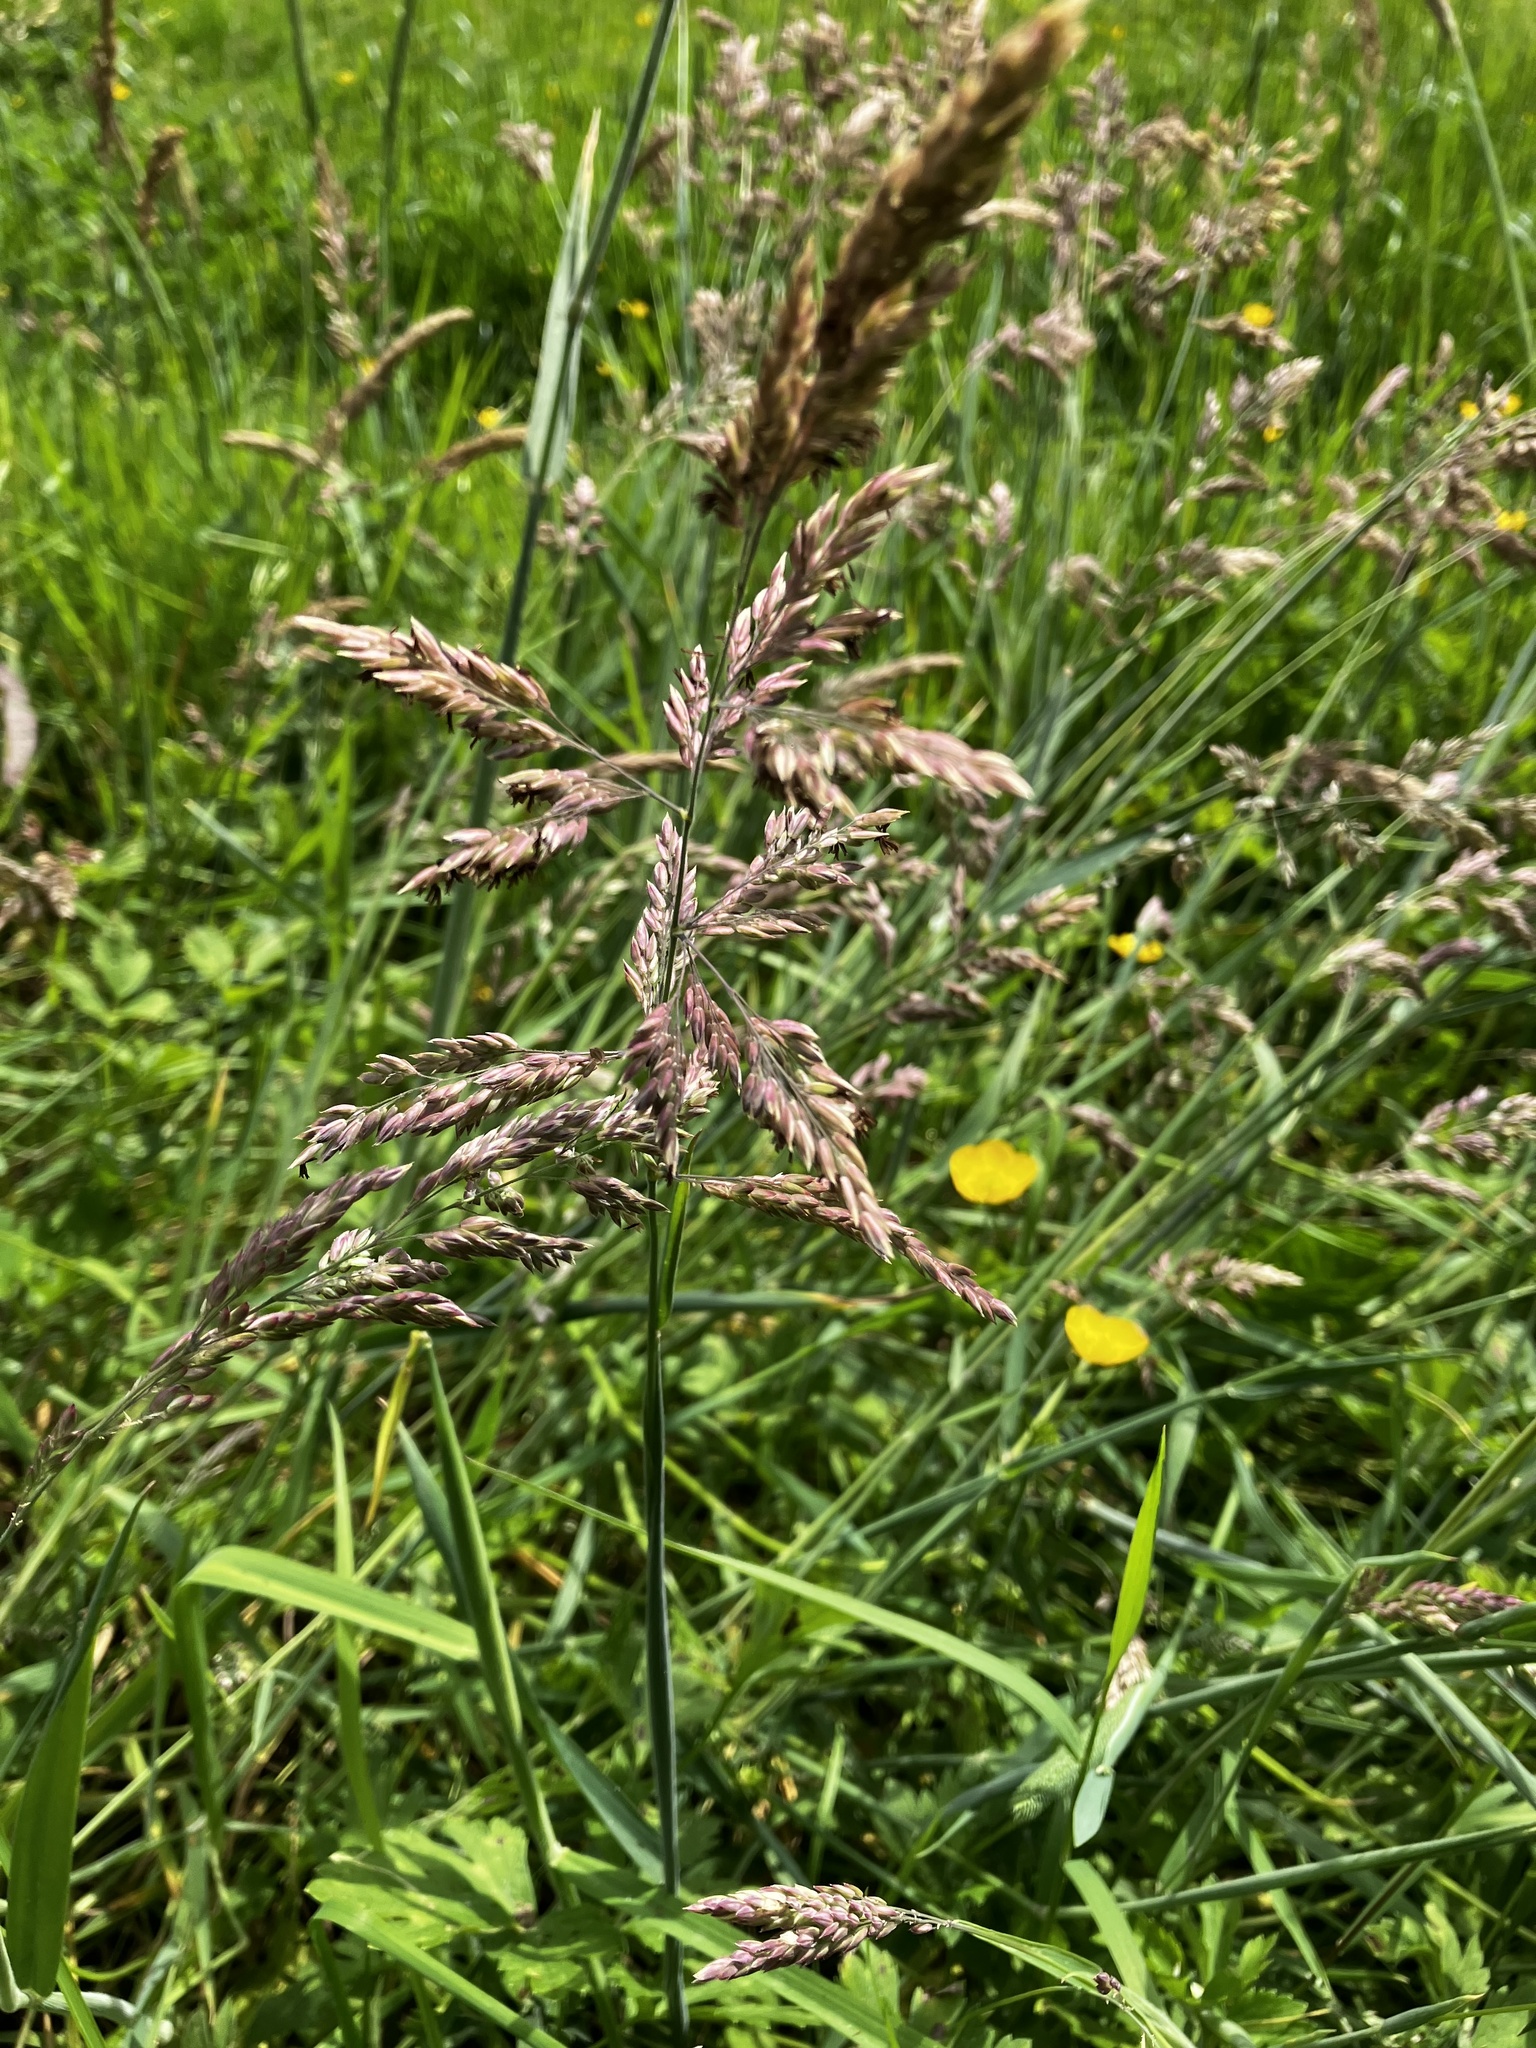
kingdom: Plantae
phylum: Tracheophyta
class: Liliopsida
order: Poales
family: Poaceae
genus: Holcus
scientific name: Holcus lanatus
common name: Yorkshire-fog
